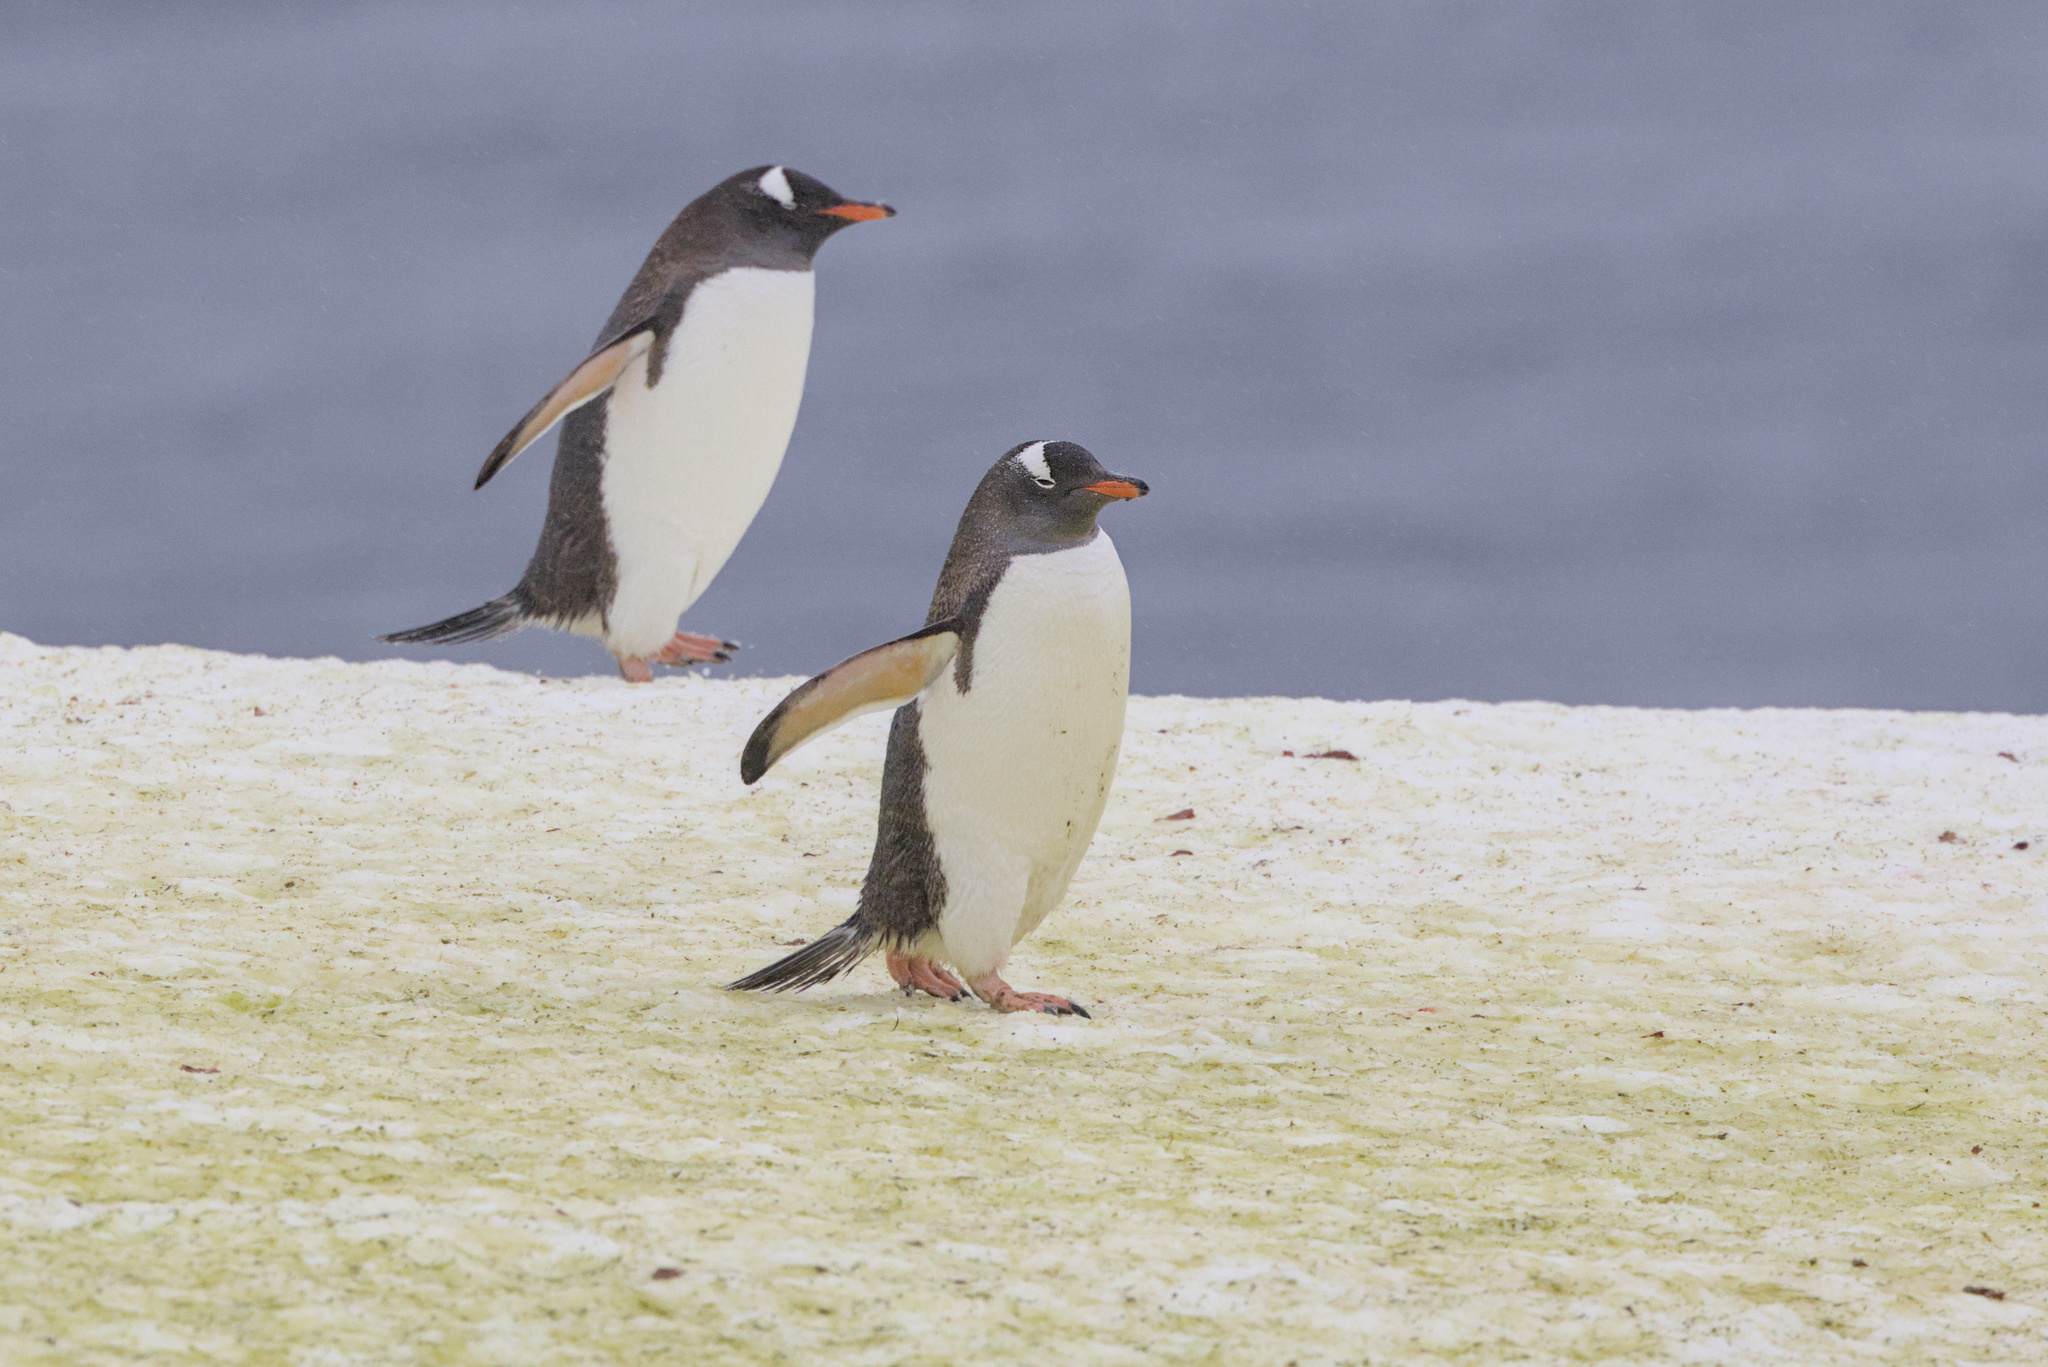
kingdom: Animalia
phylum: Chordata
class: Aves
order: Sphenisciformes
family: Spheniscidae
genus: Pygoscelis
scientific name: Pygoscelis papua
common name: Gentoo penguin
